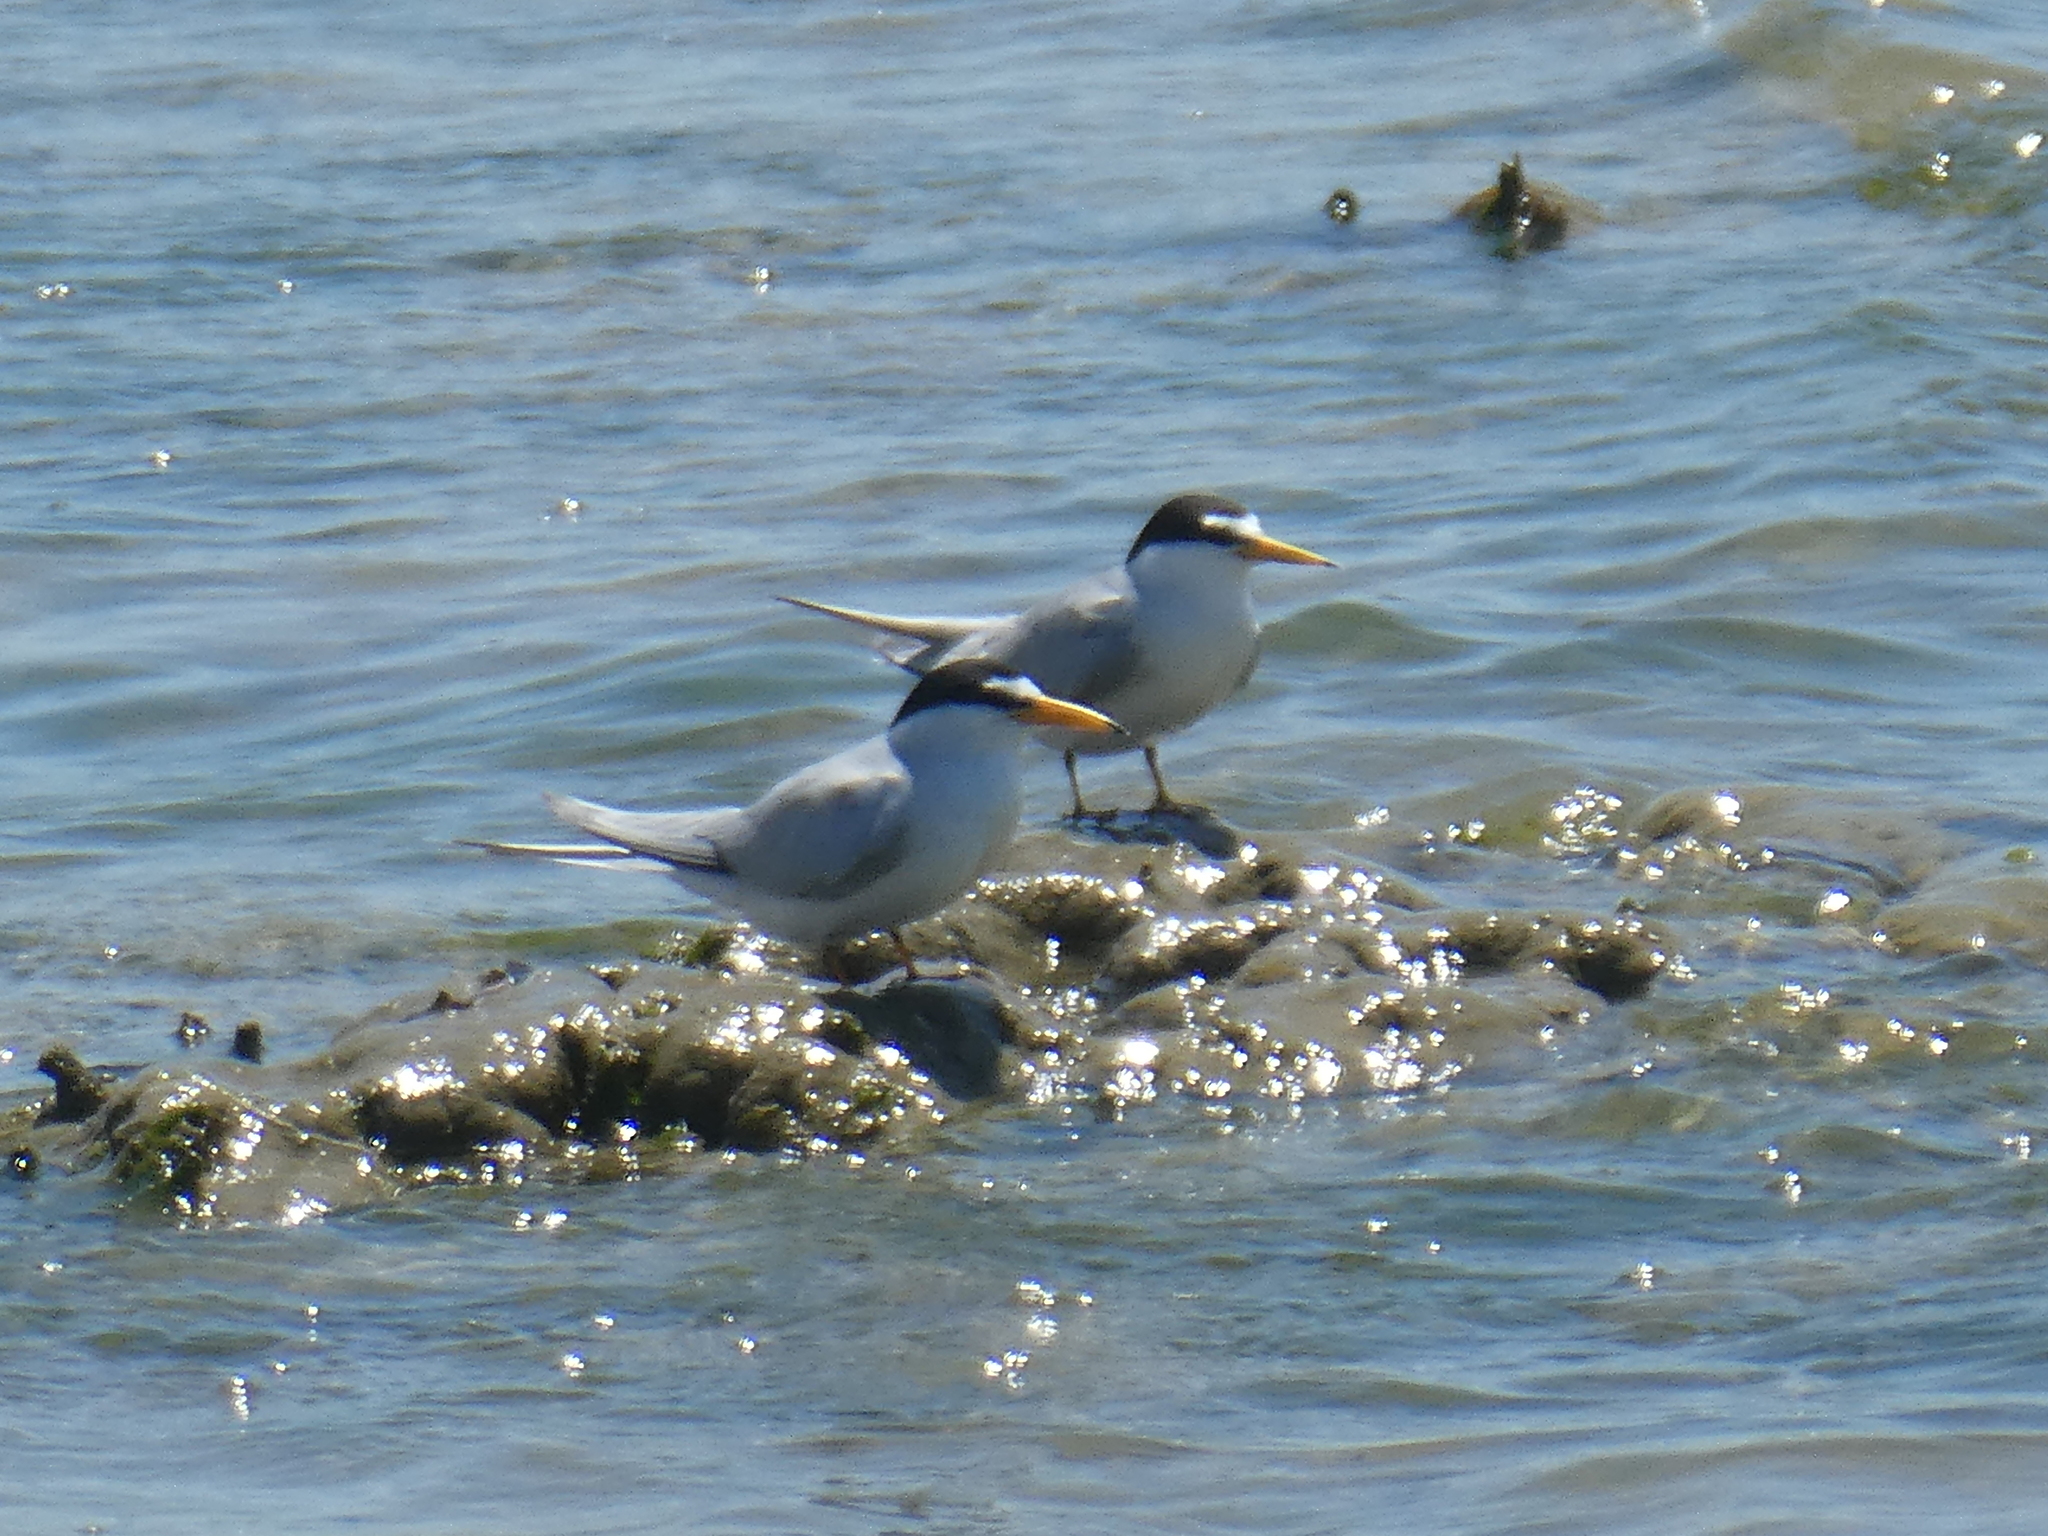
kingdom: Animalia
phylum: Chordata
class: Aves
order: Charadriiformes
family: Laridae
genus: Sternula
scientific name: Sternula antillarum
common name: Least tern
